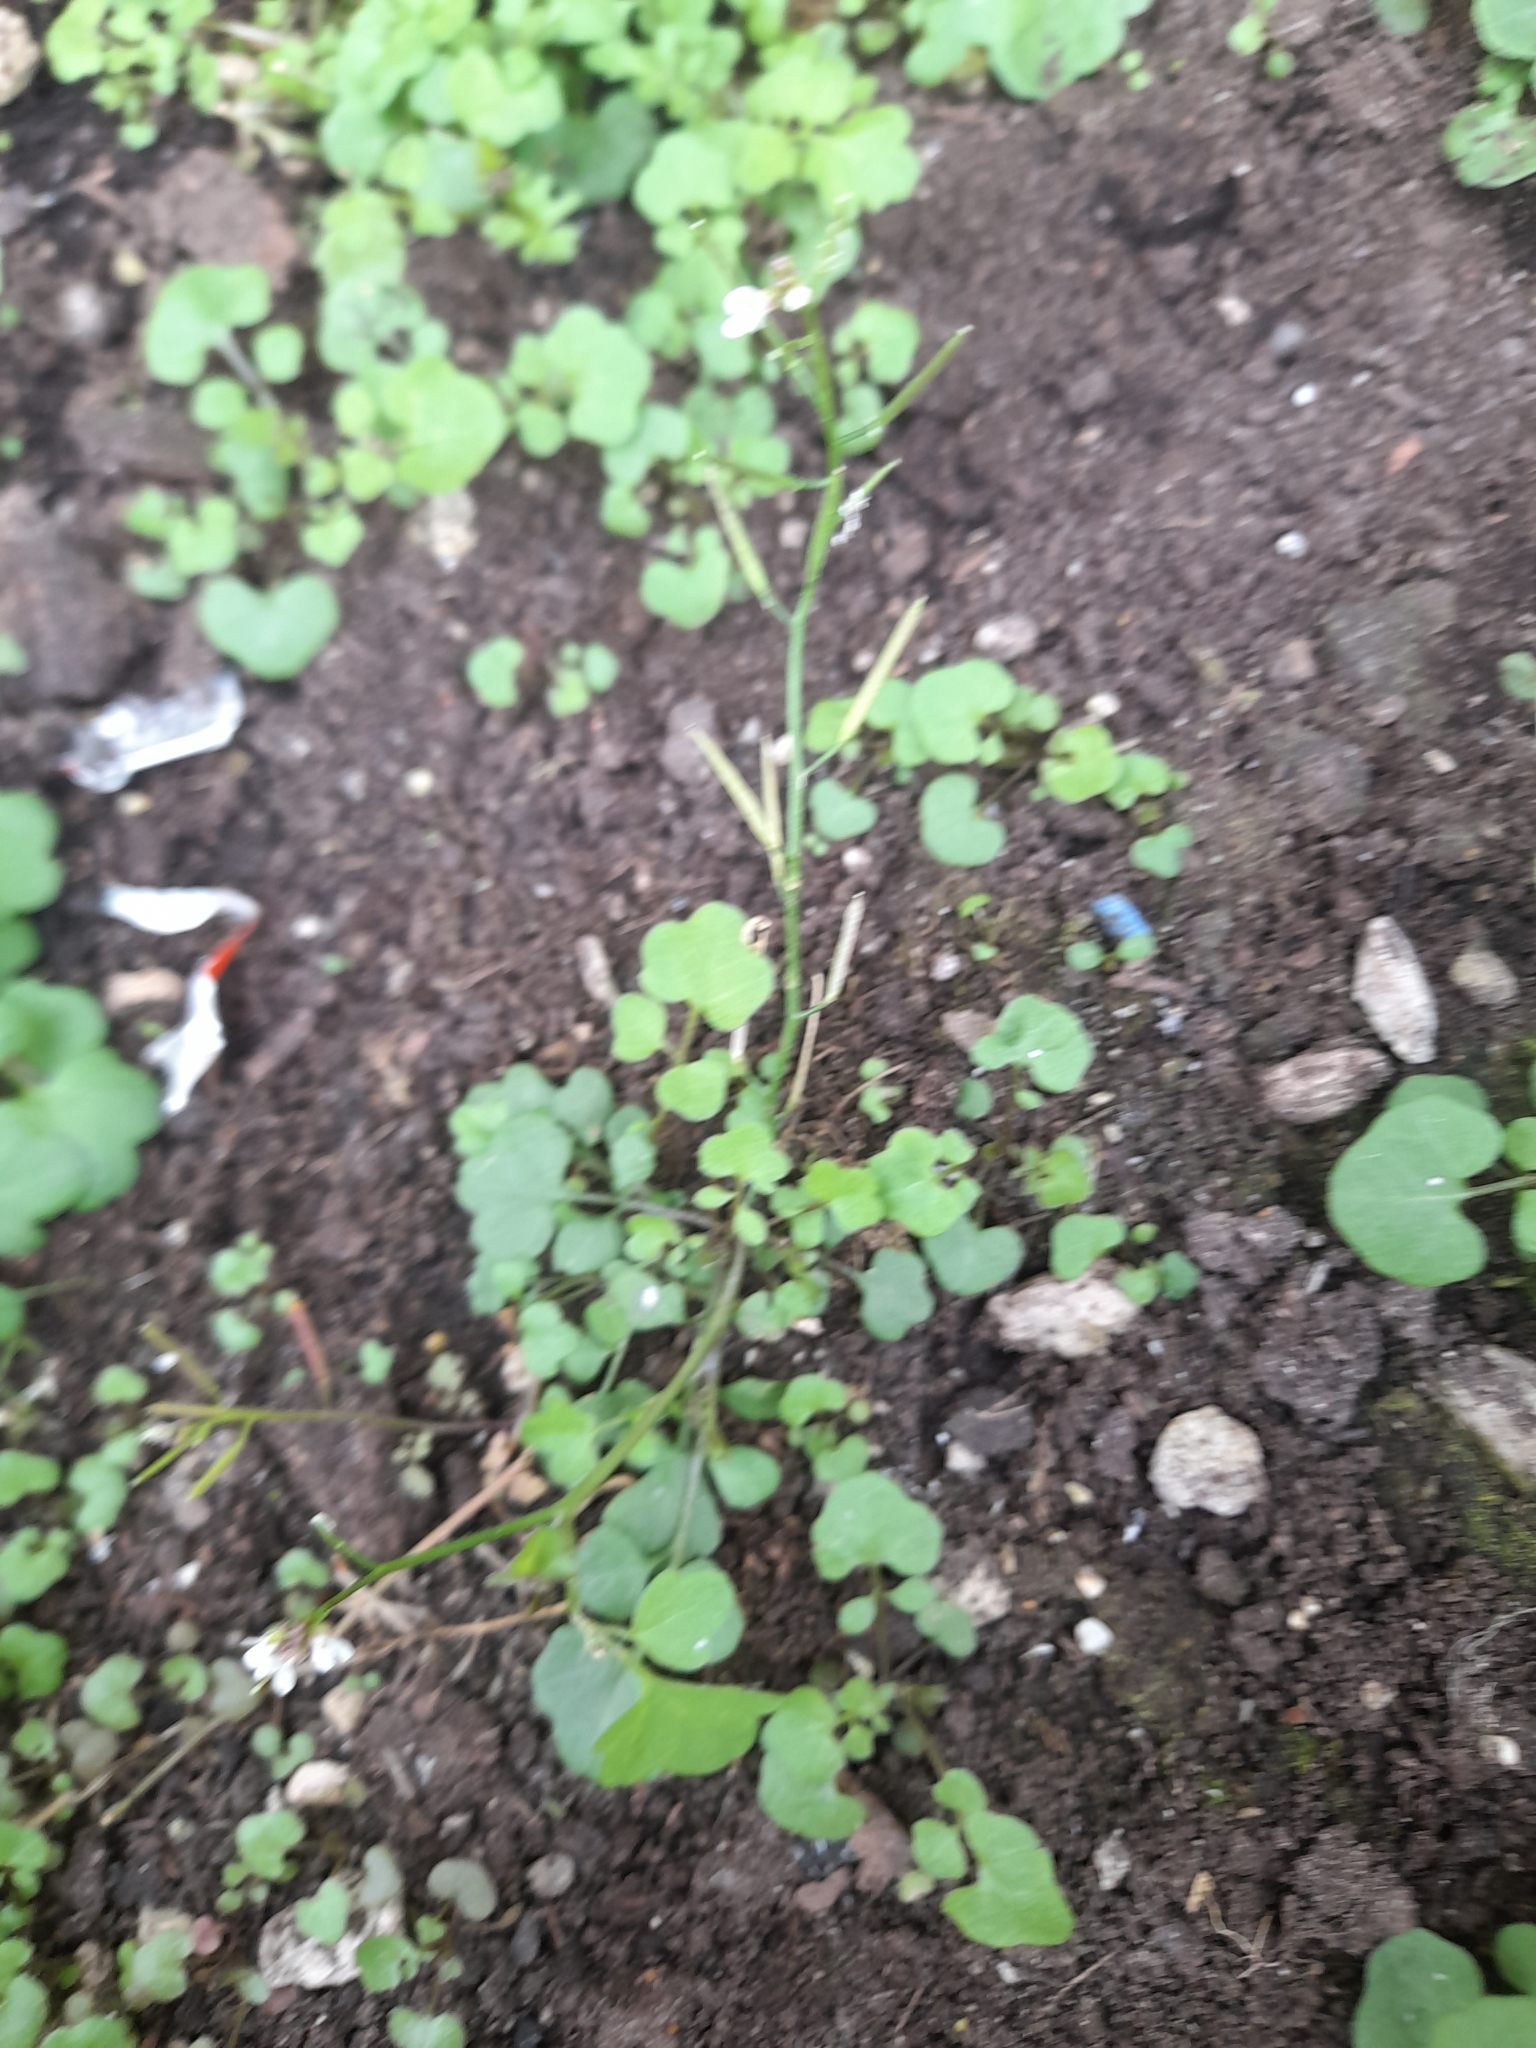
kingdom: Plantae
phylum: Tracheophyta
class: Magnoliopsida
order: Brassicales
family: Brassicaceae
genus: Cardamine
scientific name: Cardamine occulta
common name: Asian wavy bittercress
